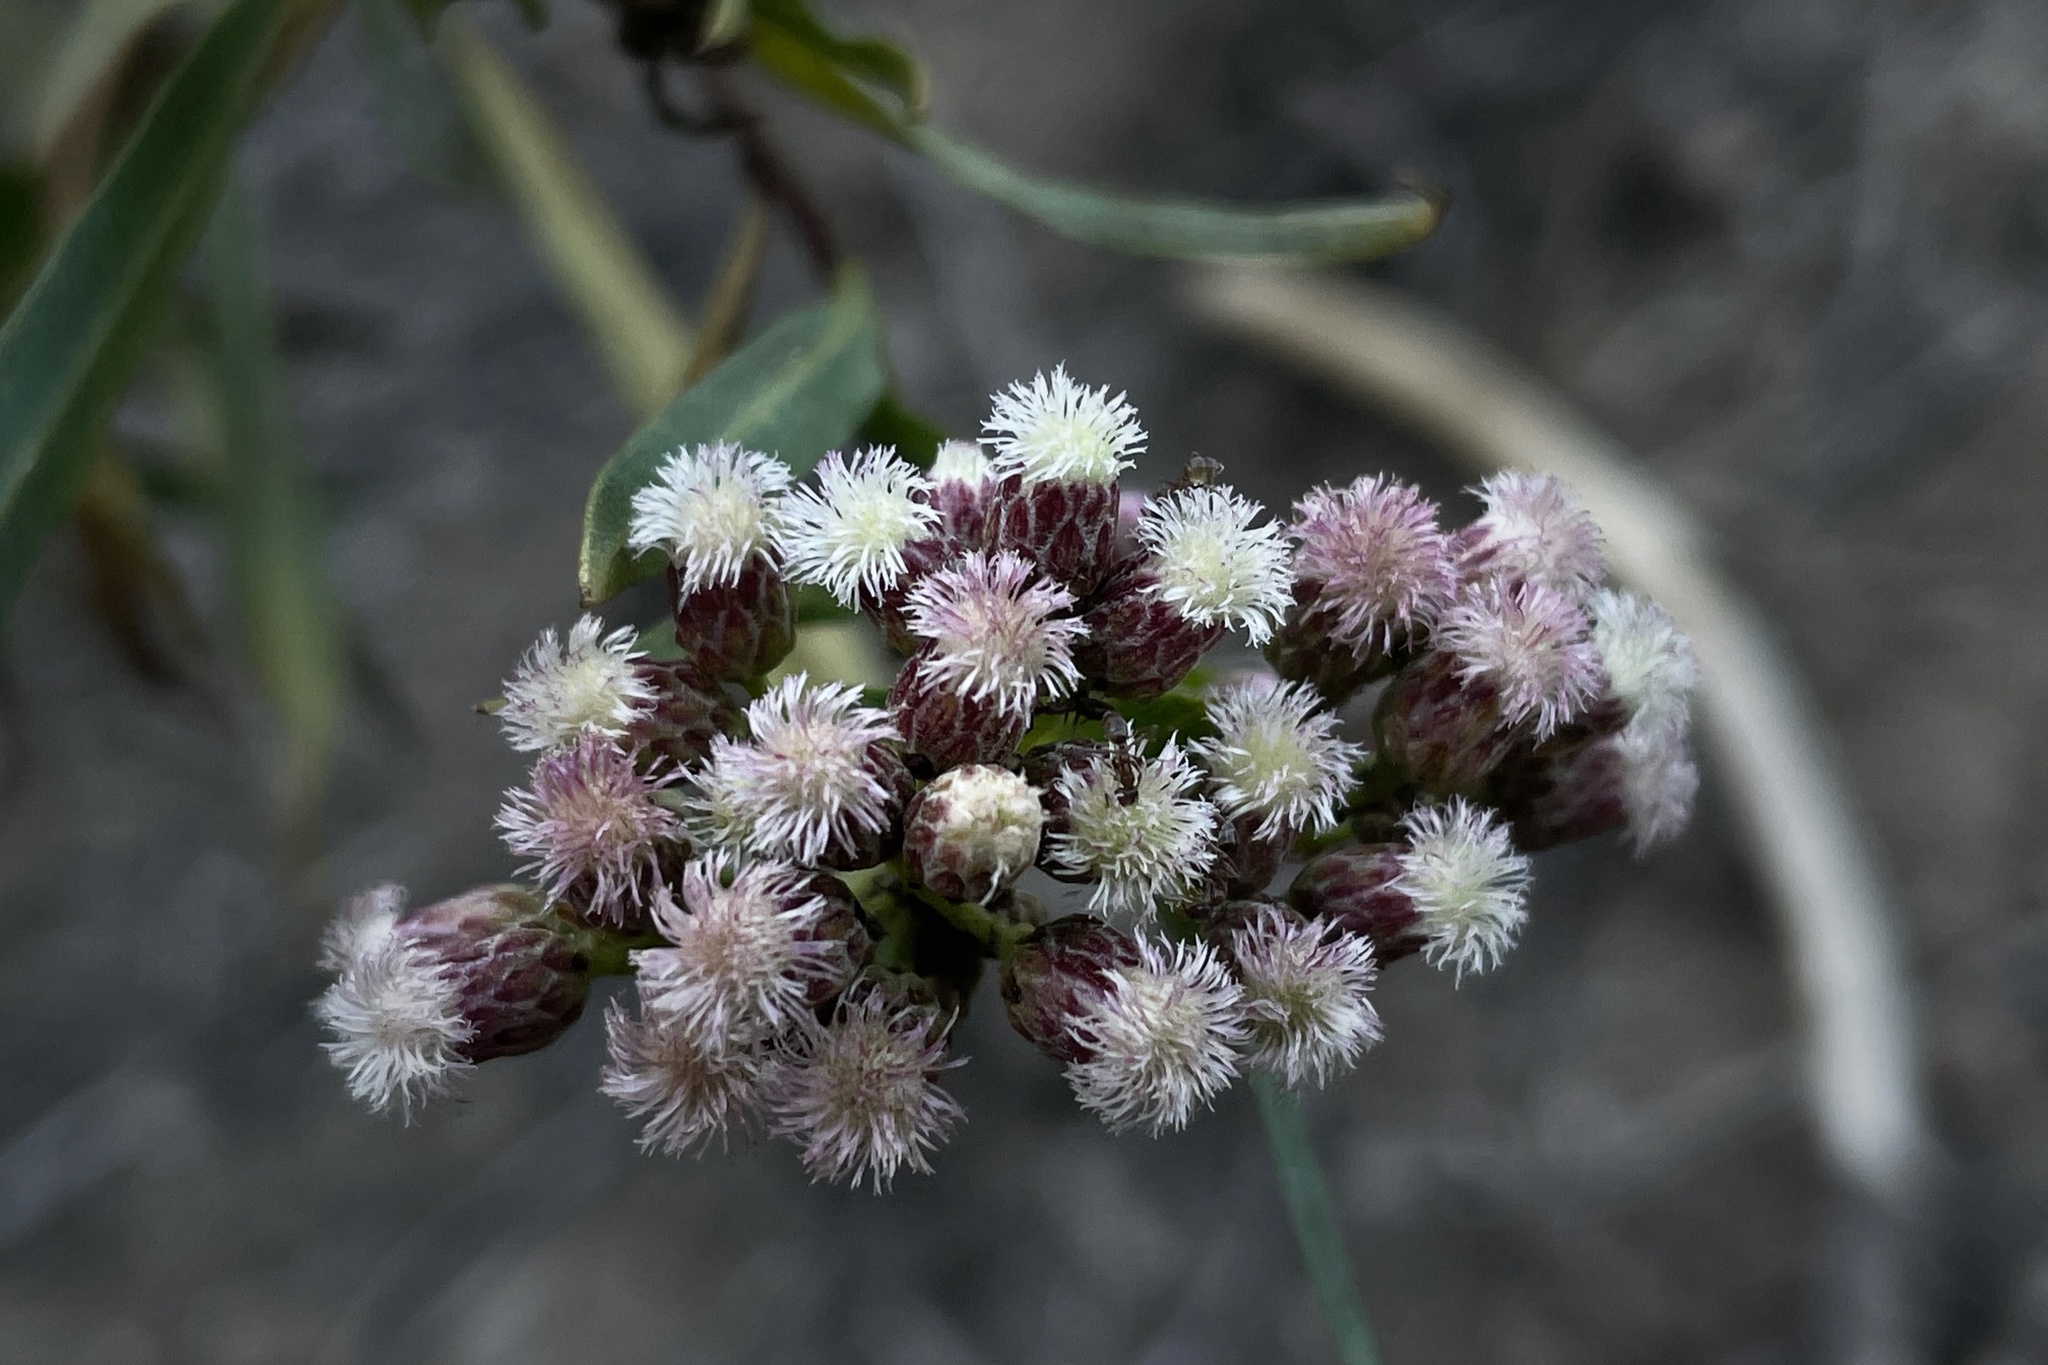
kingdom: Plantae
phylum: Tracheophyta
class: Magnoliopsida
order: Asterales
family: Asteraceae
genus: Baccharis
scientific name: Baccharis salicifolia
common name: Sticky baccharis
